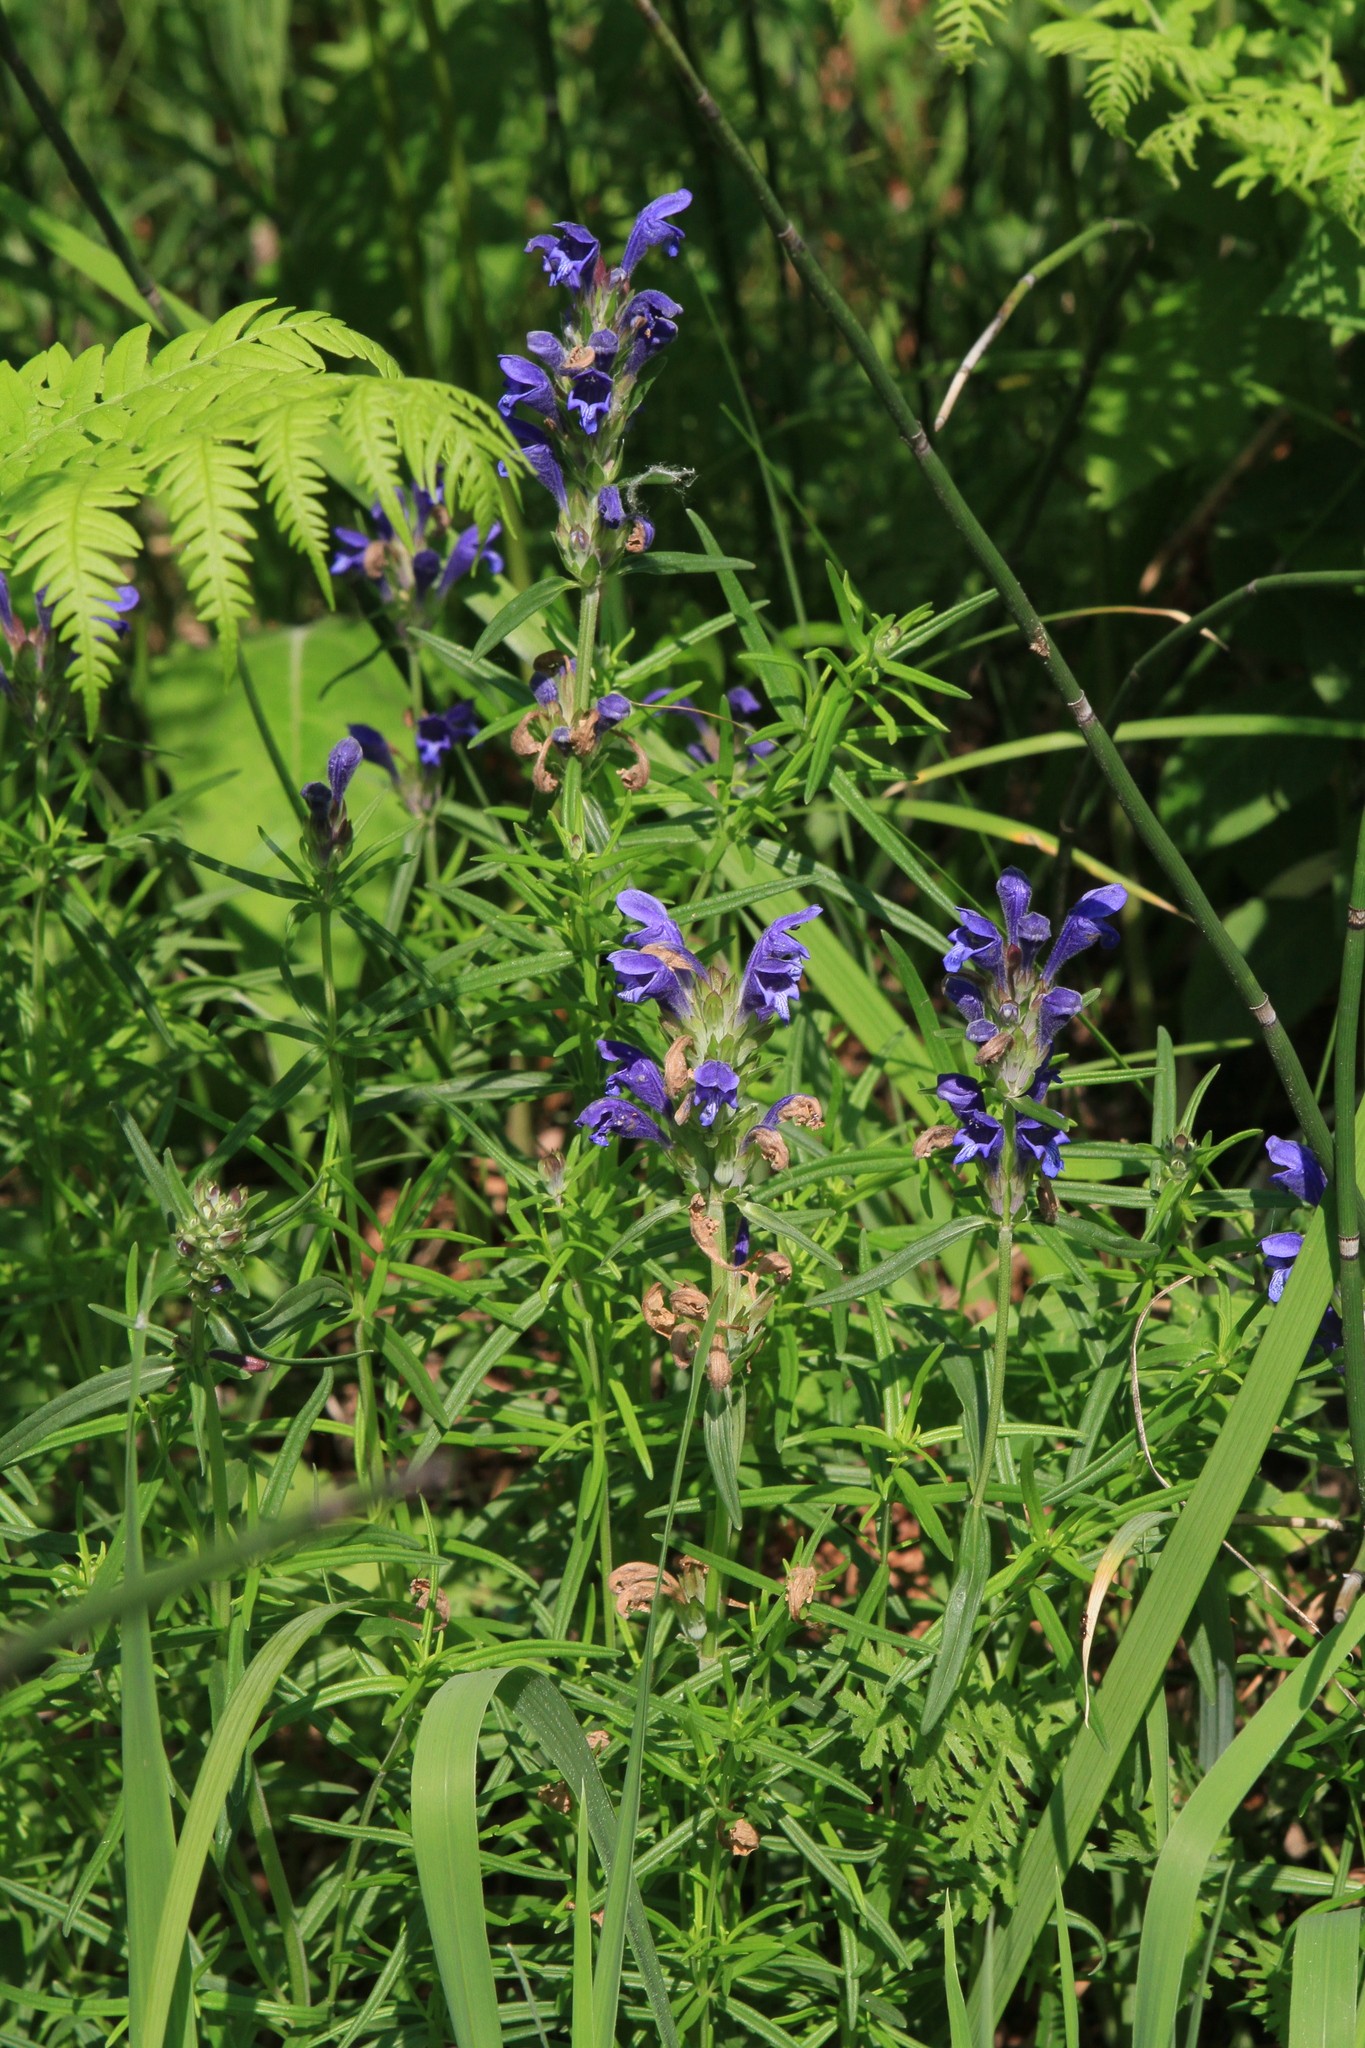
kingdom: Plantae
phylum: Tracheophyta
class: Magnoliopsida
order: Lamiales
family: Lamiaceae
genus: Dracocephalum
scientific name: Dracocephalum ruyschiana
